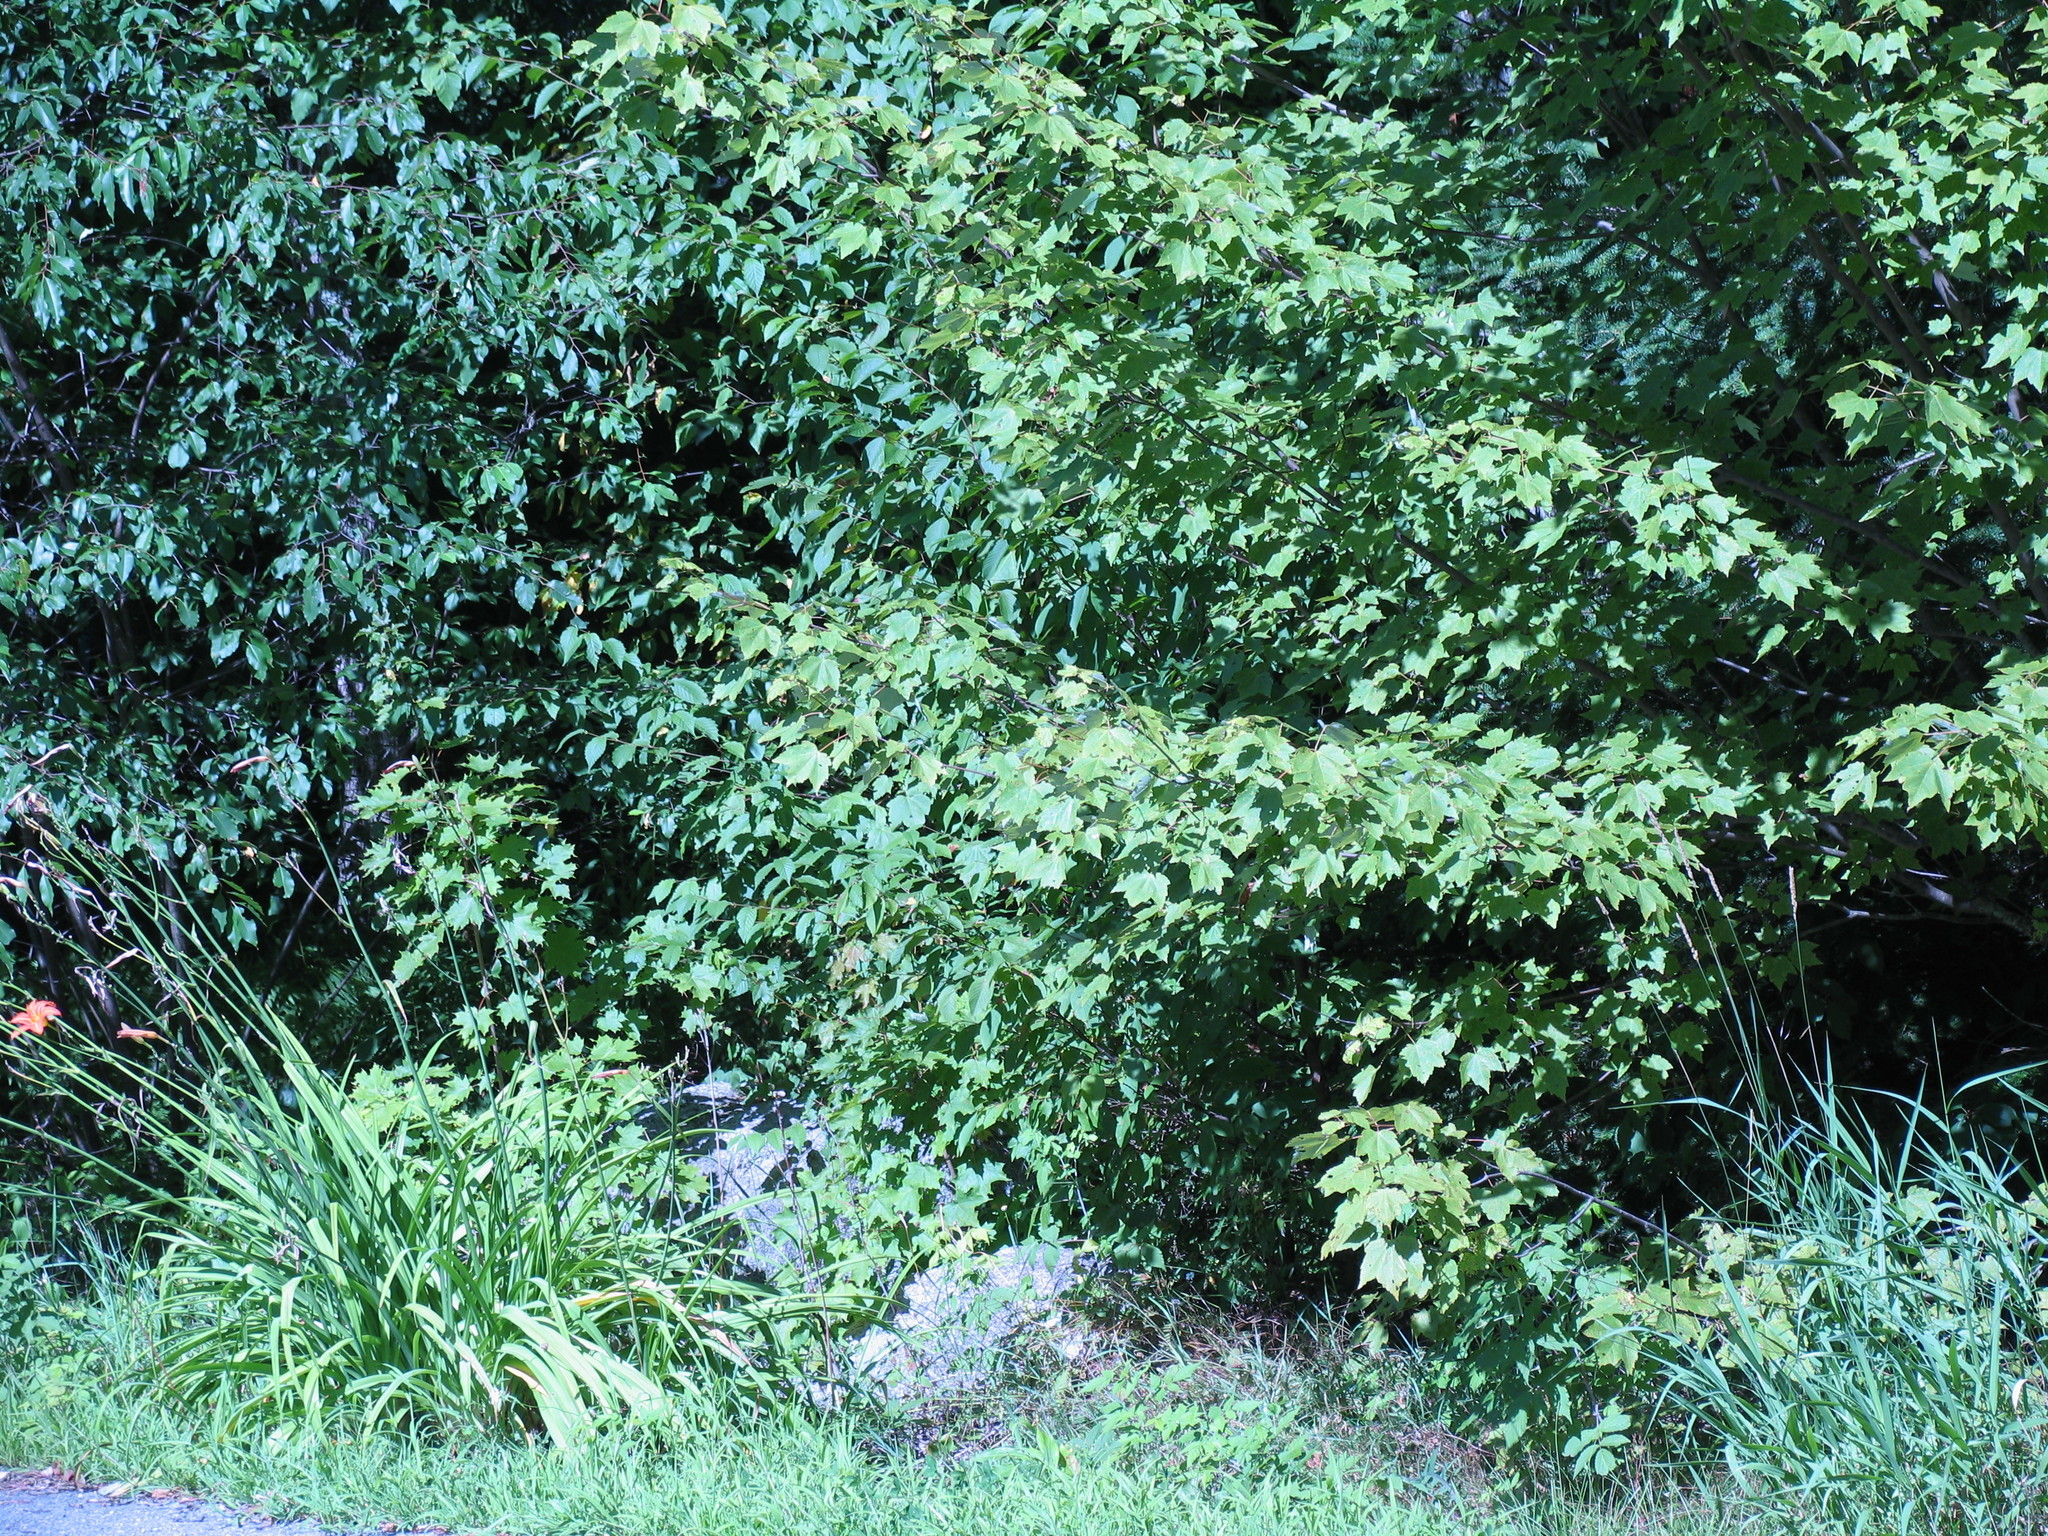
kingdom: Plantae
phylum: Tracheophyta
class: Magnoliopsida
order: Sapindales
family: Sapindaceae
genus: Acer
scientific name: Acer rubrum
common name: Red maple
